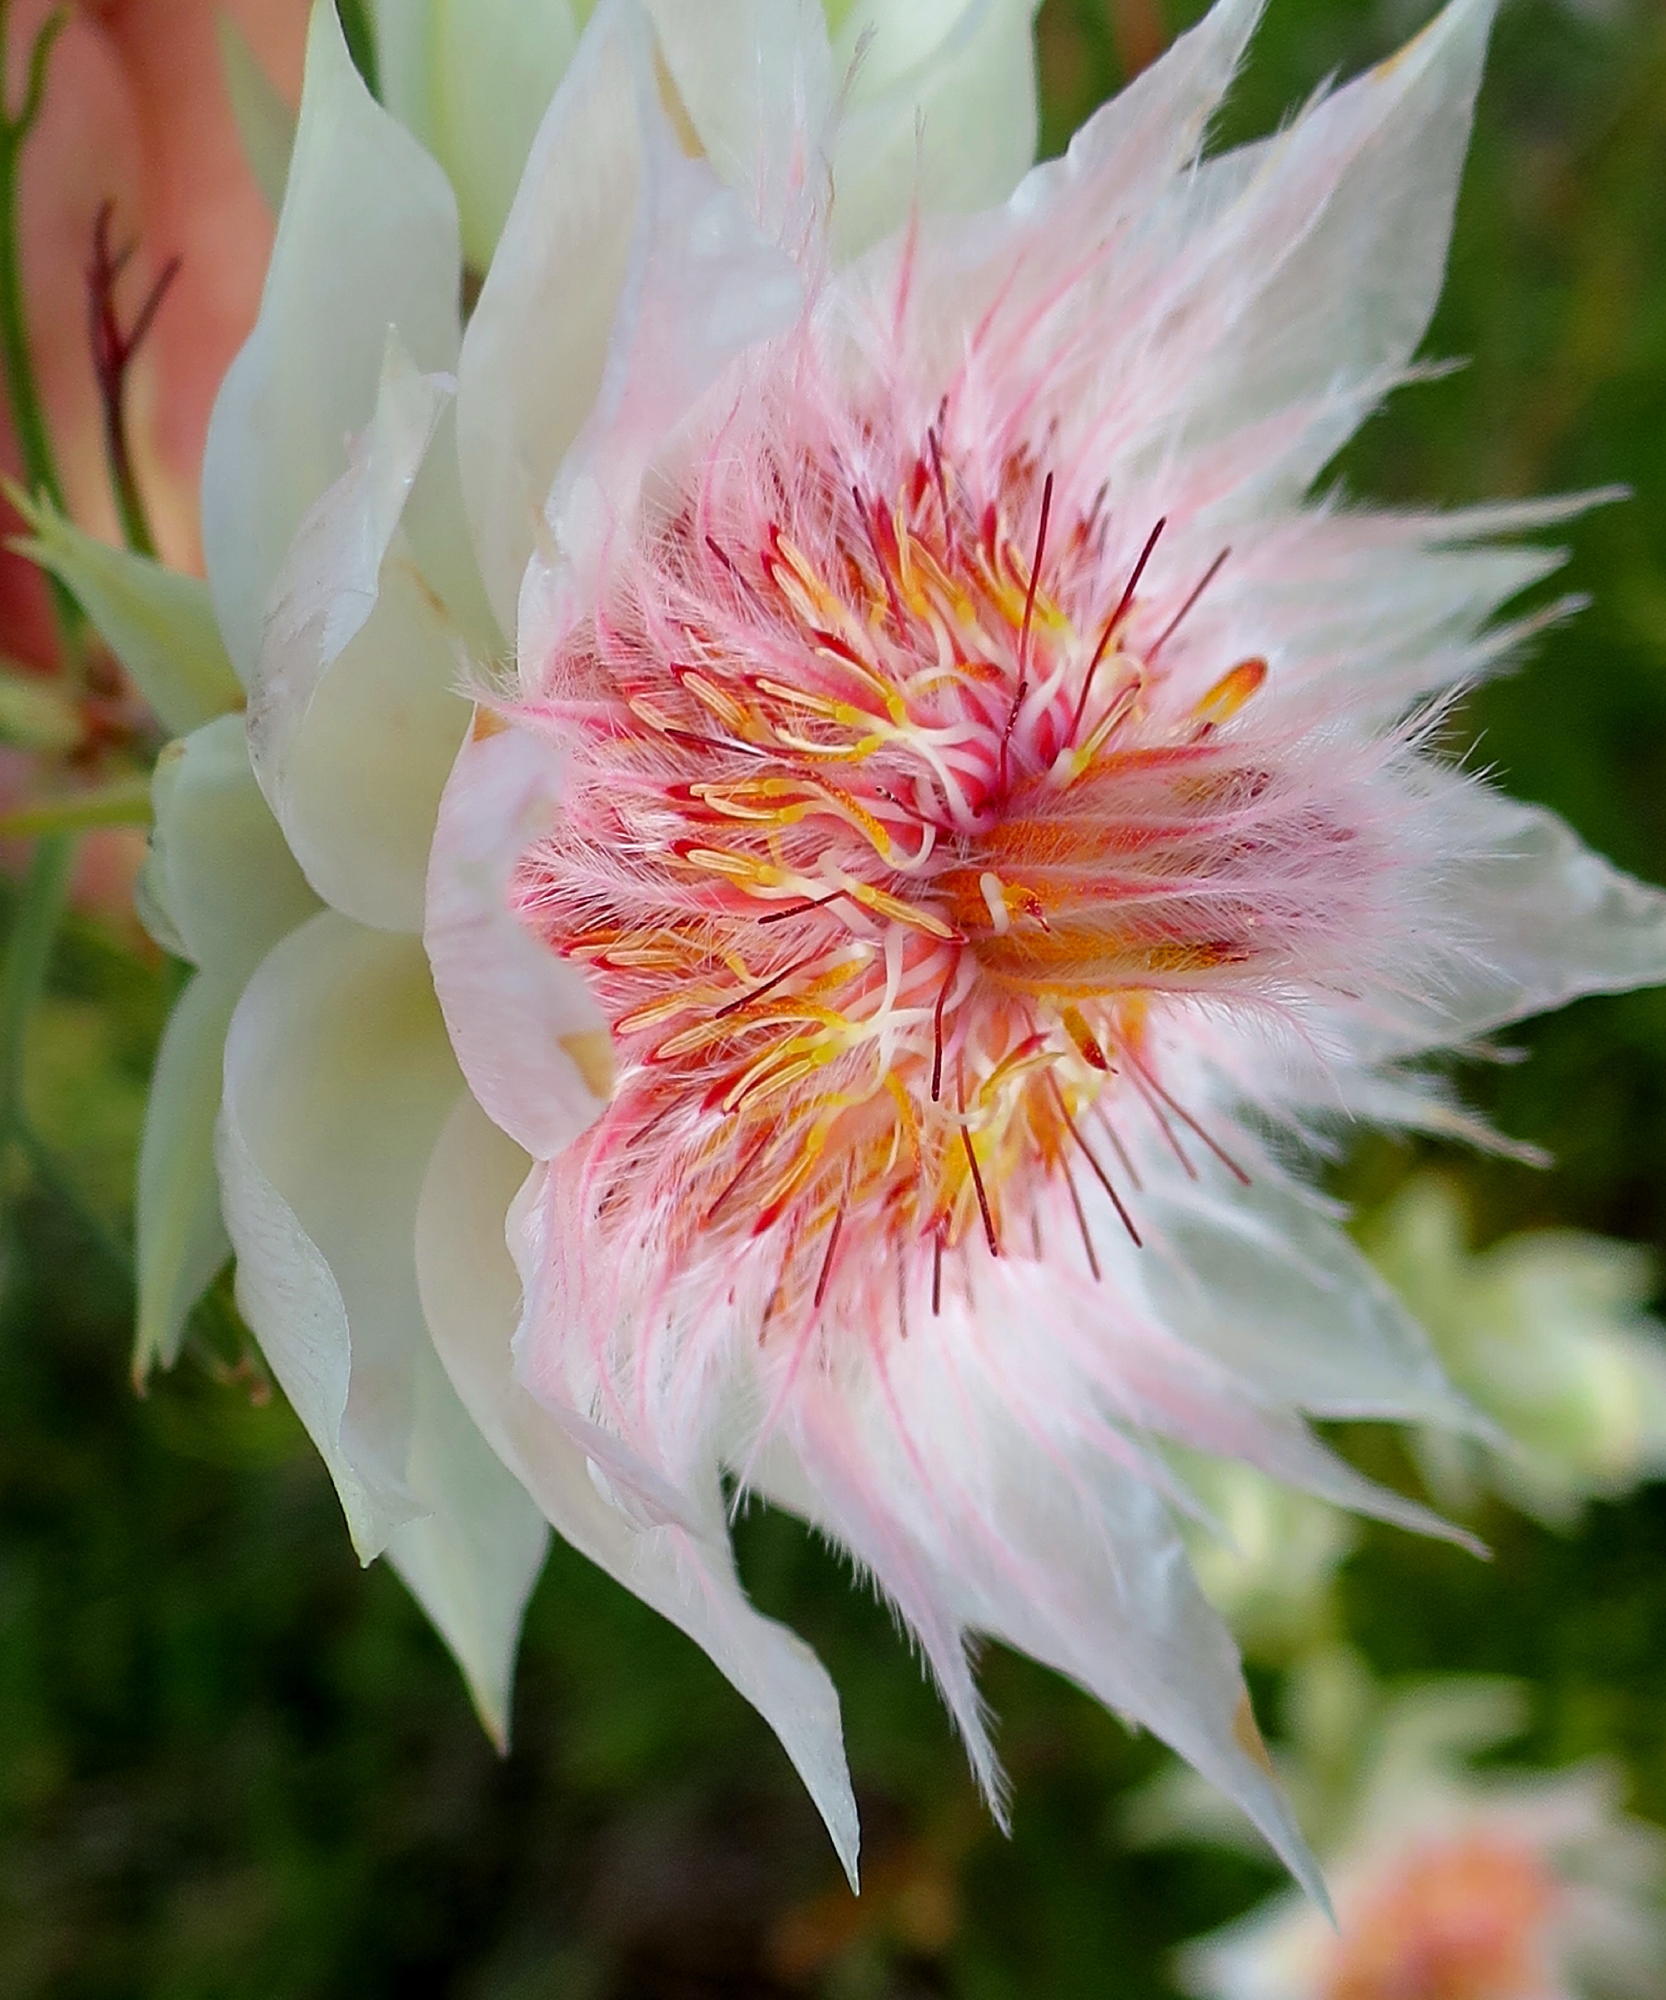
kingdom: Plantae
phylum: Tracheophyta
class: Magnoliopsida
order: Proteales
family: Proteaceae
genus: Serruria
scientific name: Serruria florida
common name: Blushing bride
